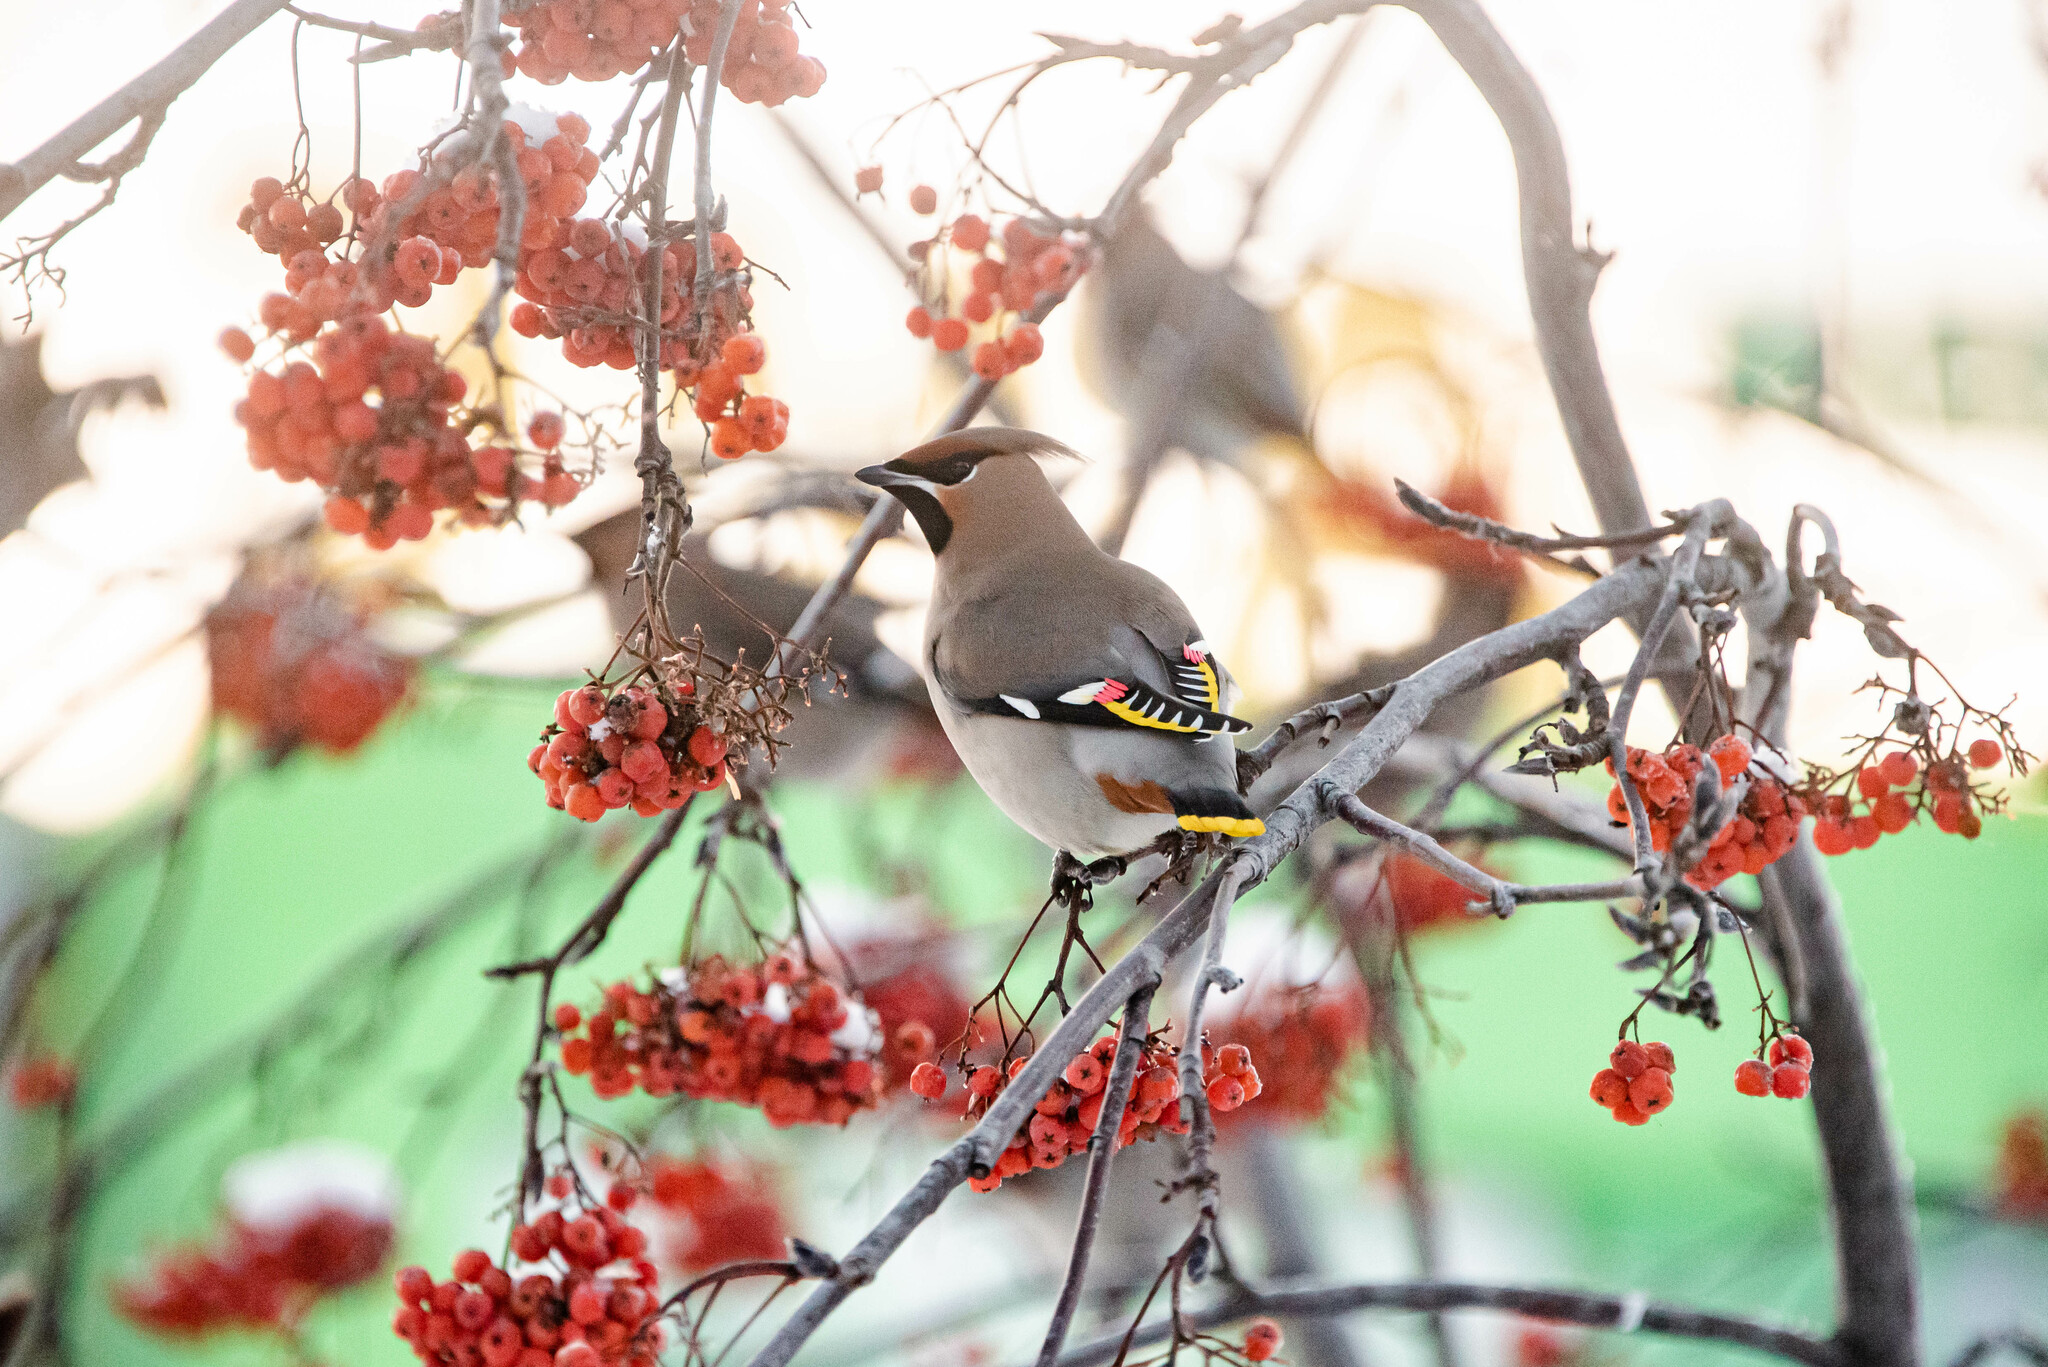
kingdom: Animalia
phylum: Chordata
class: Aves
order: Passeriformes
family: Bombycillidae
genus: Bombycilla
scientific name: Bombycilla garrulus
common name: Bohemian waxwing
